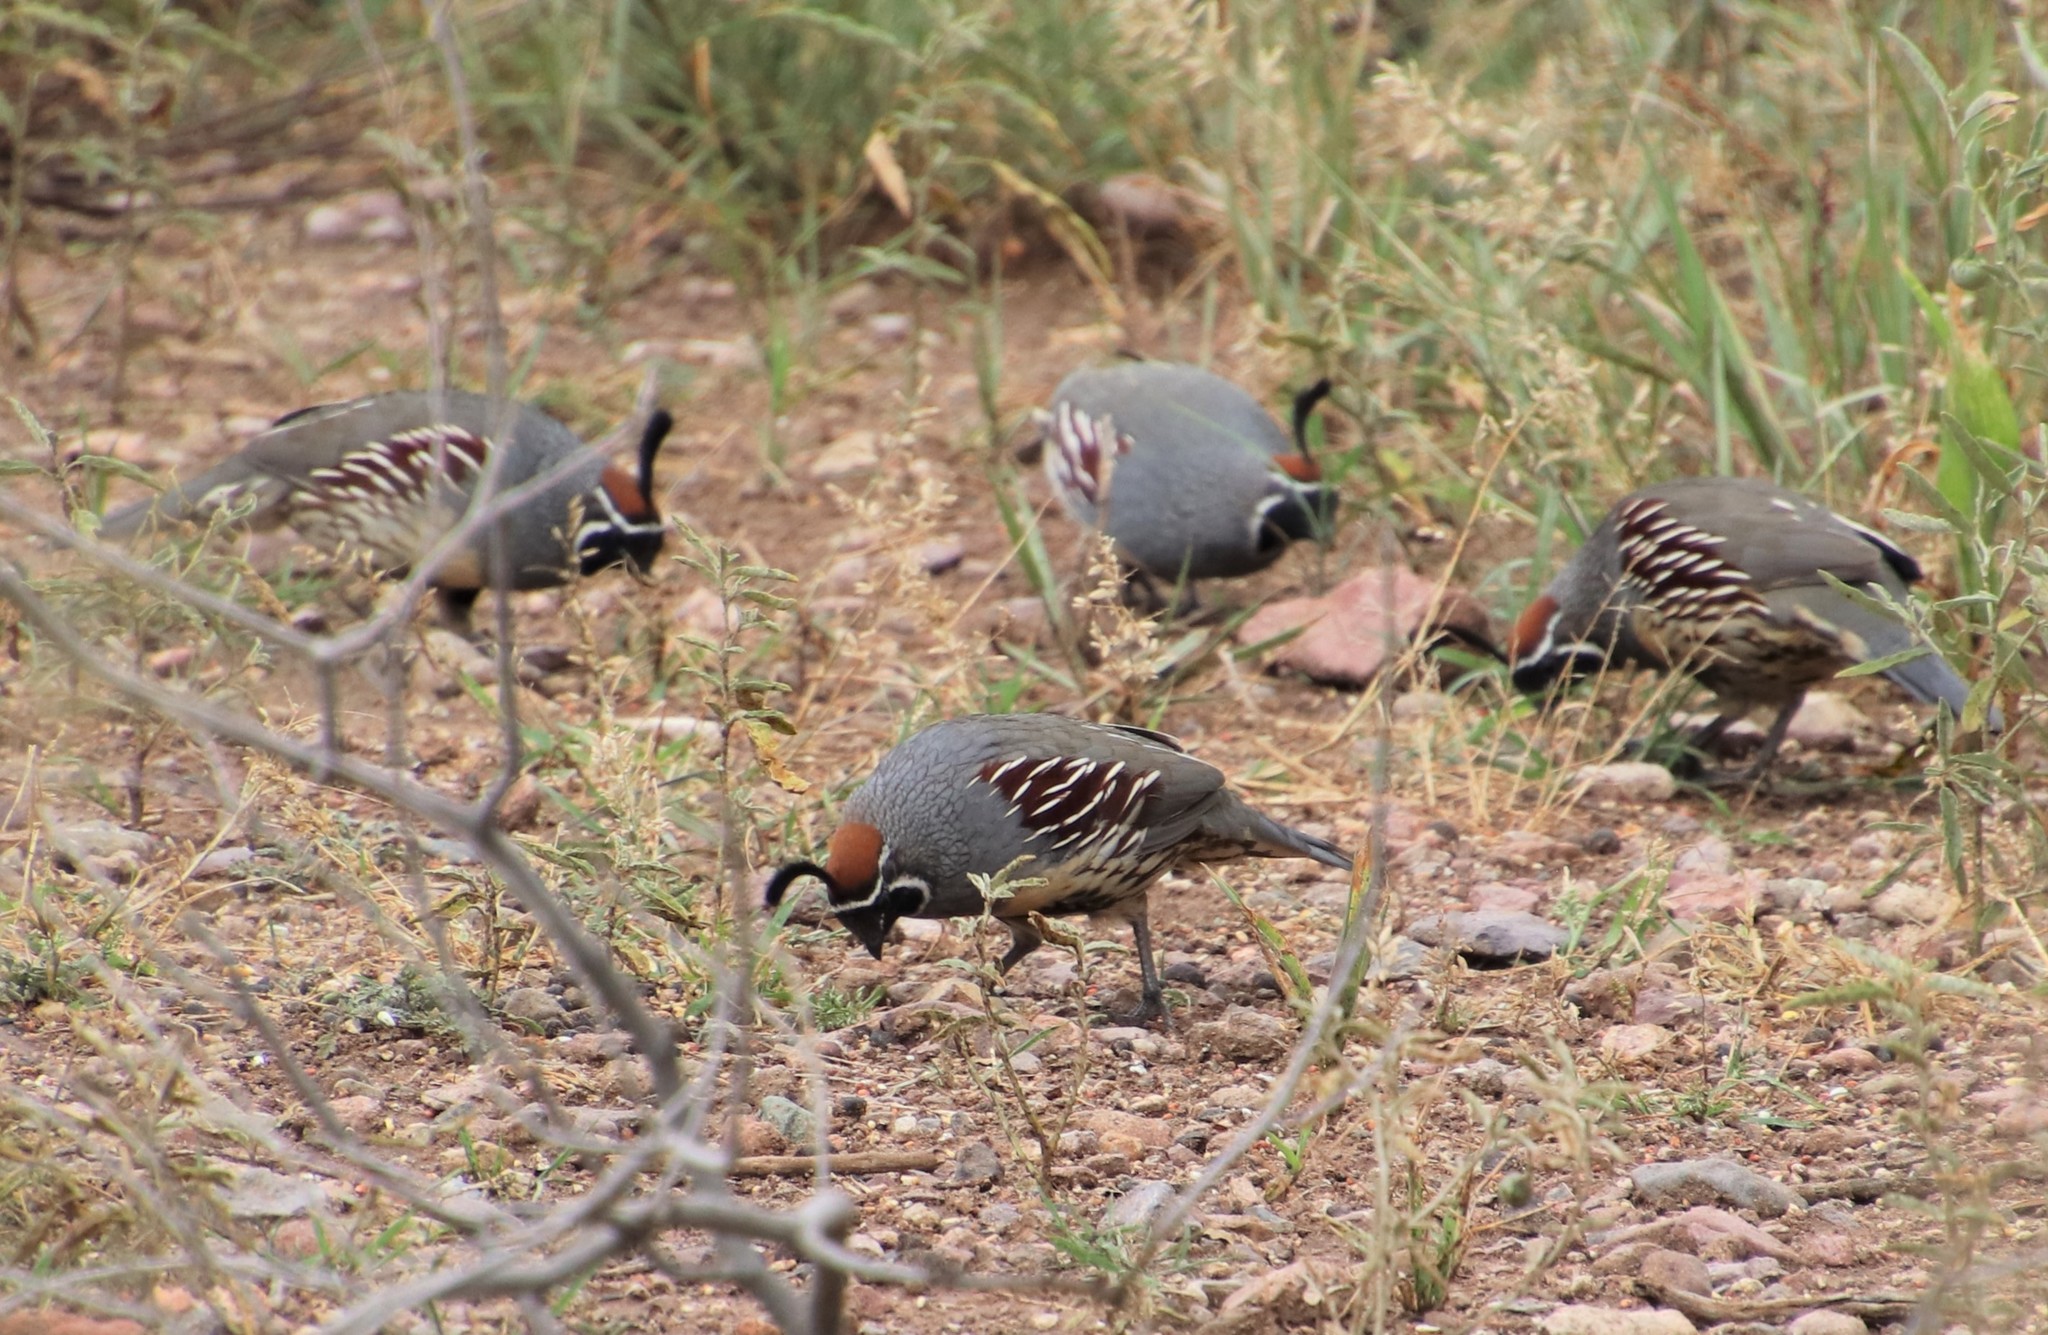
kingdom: Animalia
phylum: Chordata
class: Aves
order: Galliformes
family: Odontophoridae
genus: Callipepla
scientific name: Callipepla gambelii
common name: Gambel's quail
